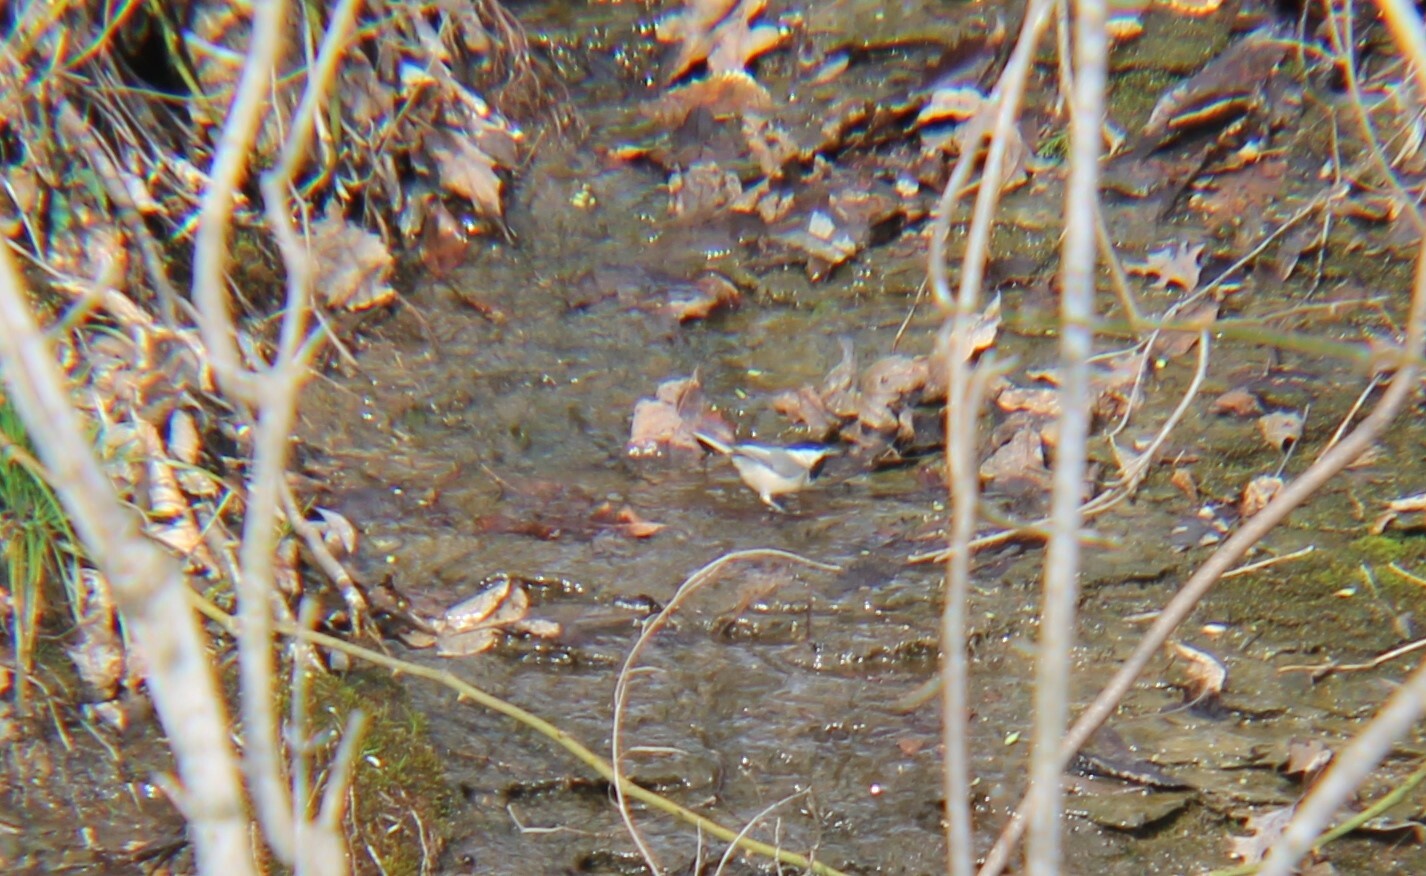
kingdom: Animalia
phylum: Chordata
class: Aves
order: Passeriformes
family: Paridae
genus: Poecile
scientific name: Poecile carolinensis
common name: Carolina chickadee
